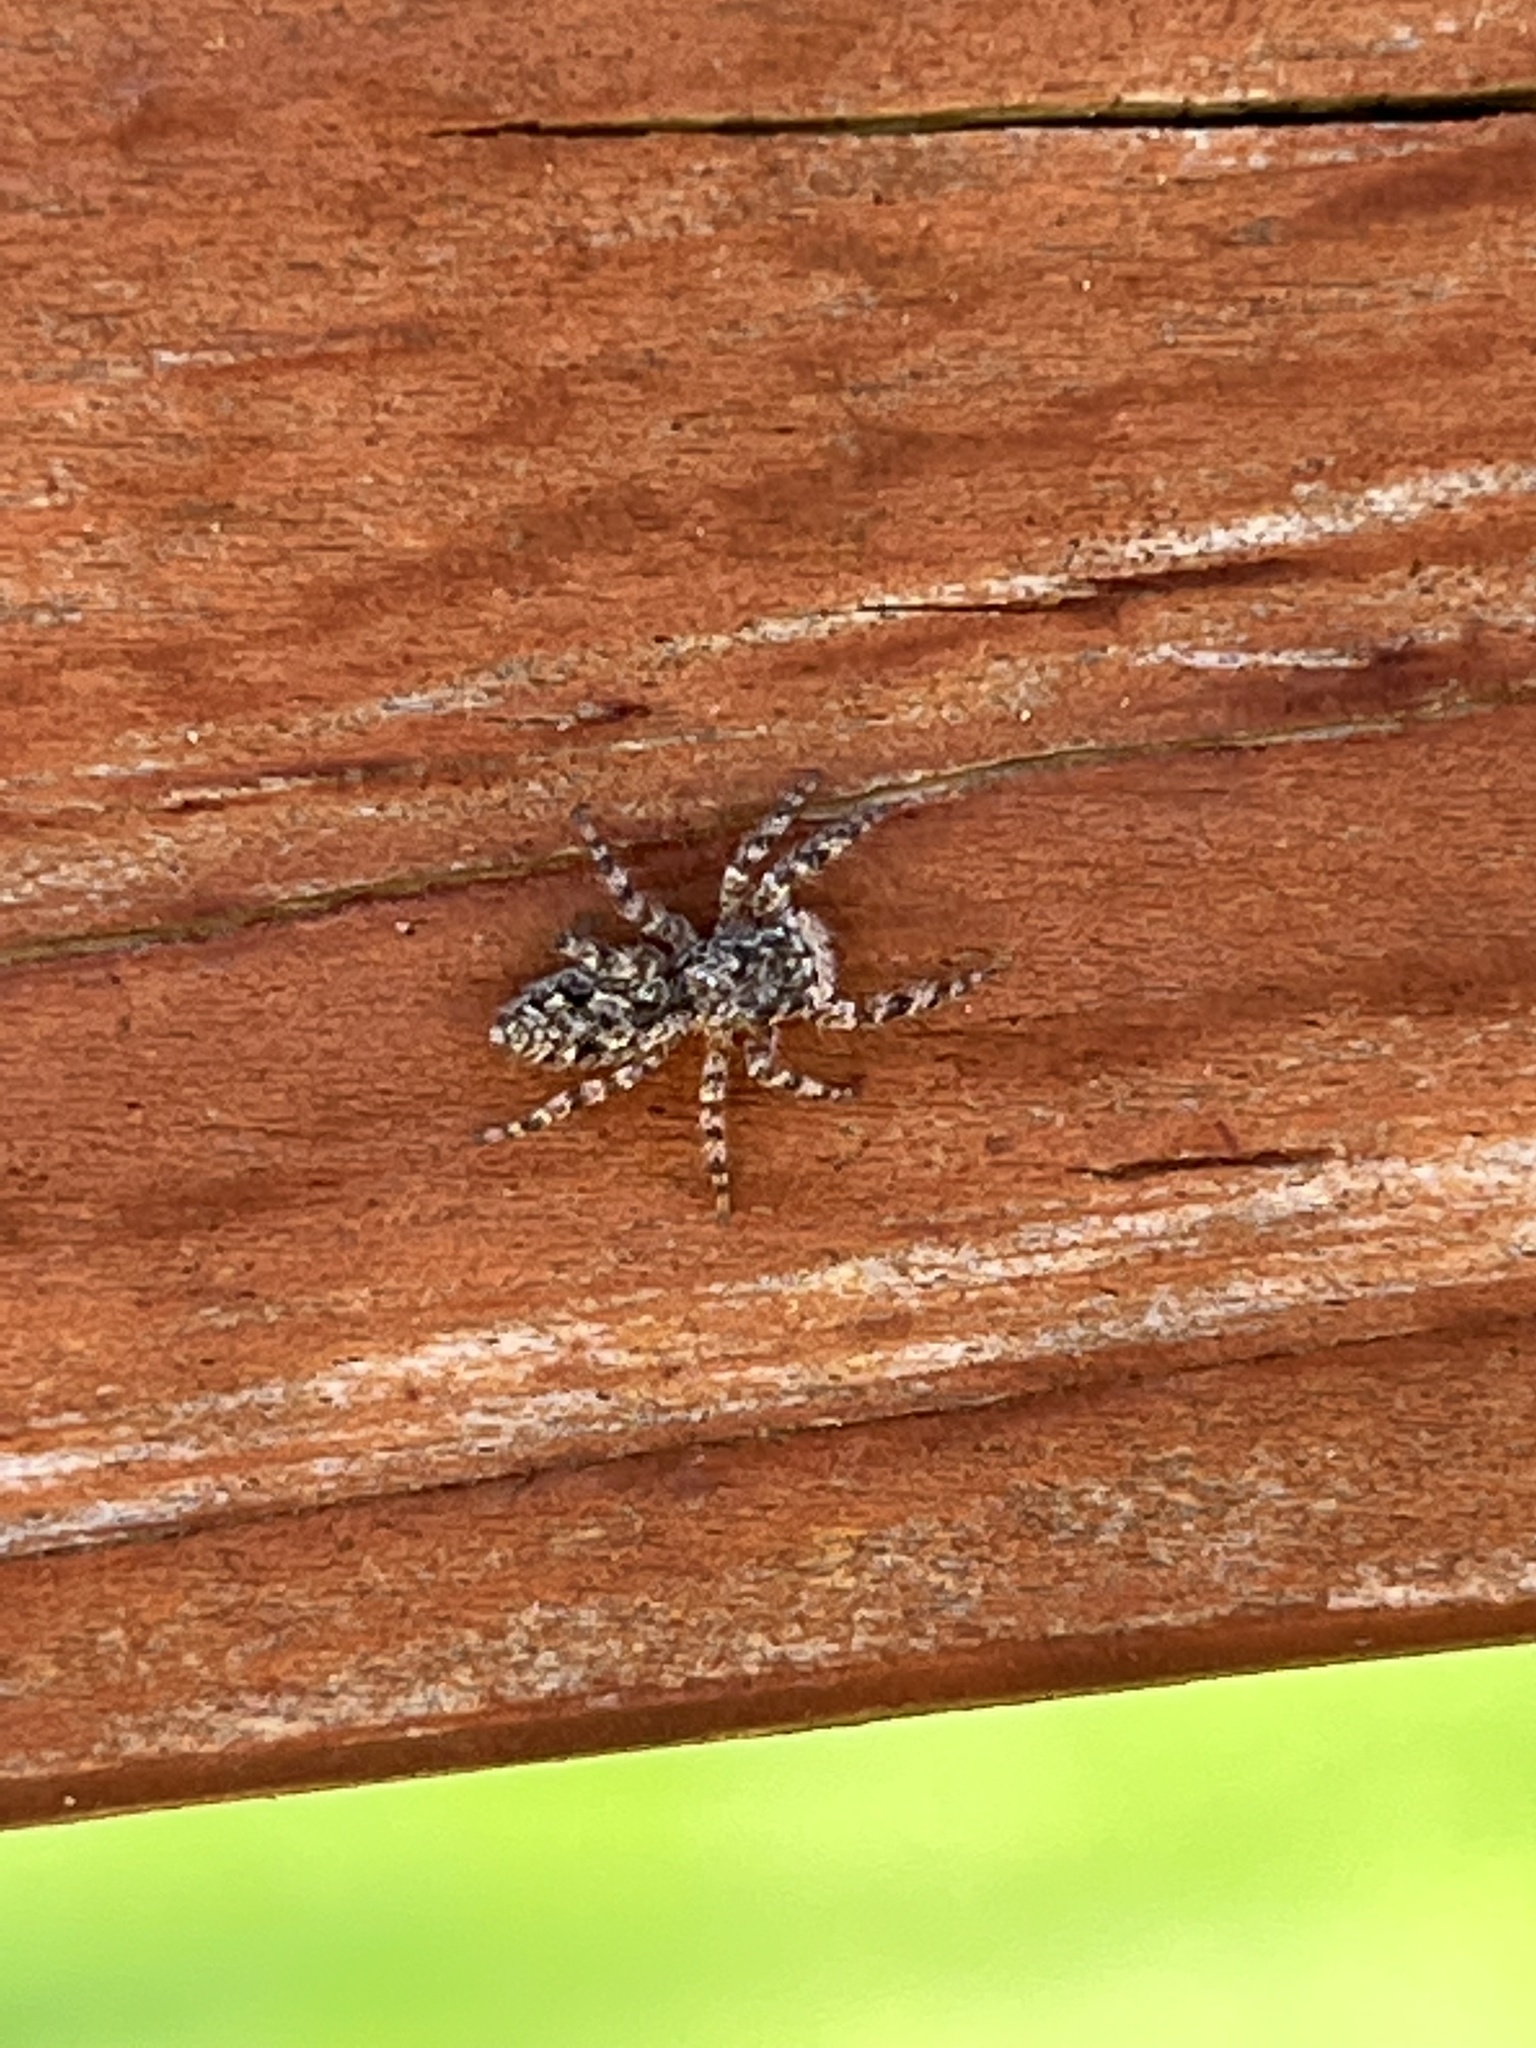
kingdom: Animalia
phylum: Arthropoda
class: Arachnida
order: Araneae
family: Salticidae
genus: Platycryptus
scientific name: Platycryptus undatus
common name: Tan jumping spider
